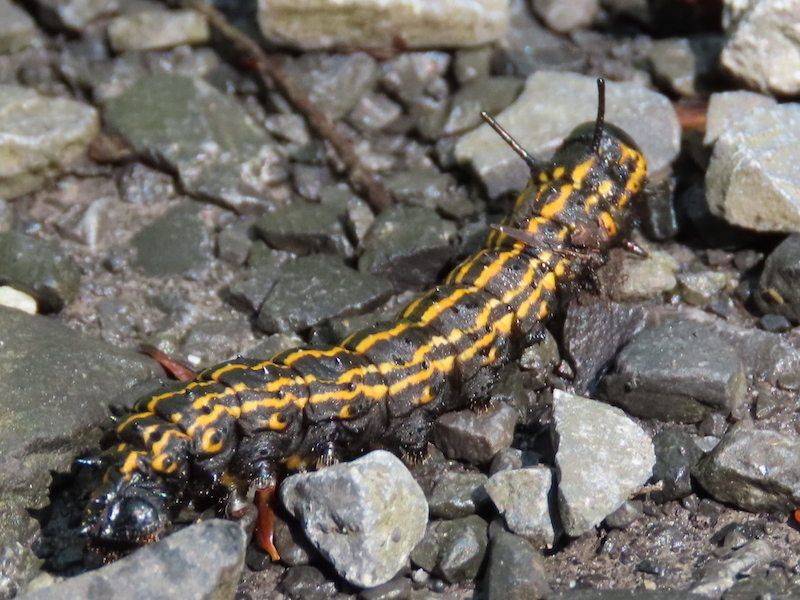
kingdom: Animalia
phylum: Arthropoda
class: Insecta
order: Lepidoptera
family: Saturniidae
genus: Anisota
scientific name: Anisota senatoria
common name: Orange-striped oakworm moth
